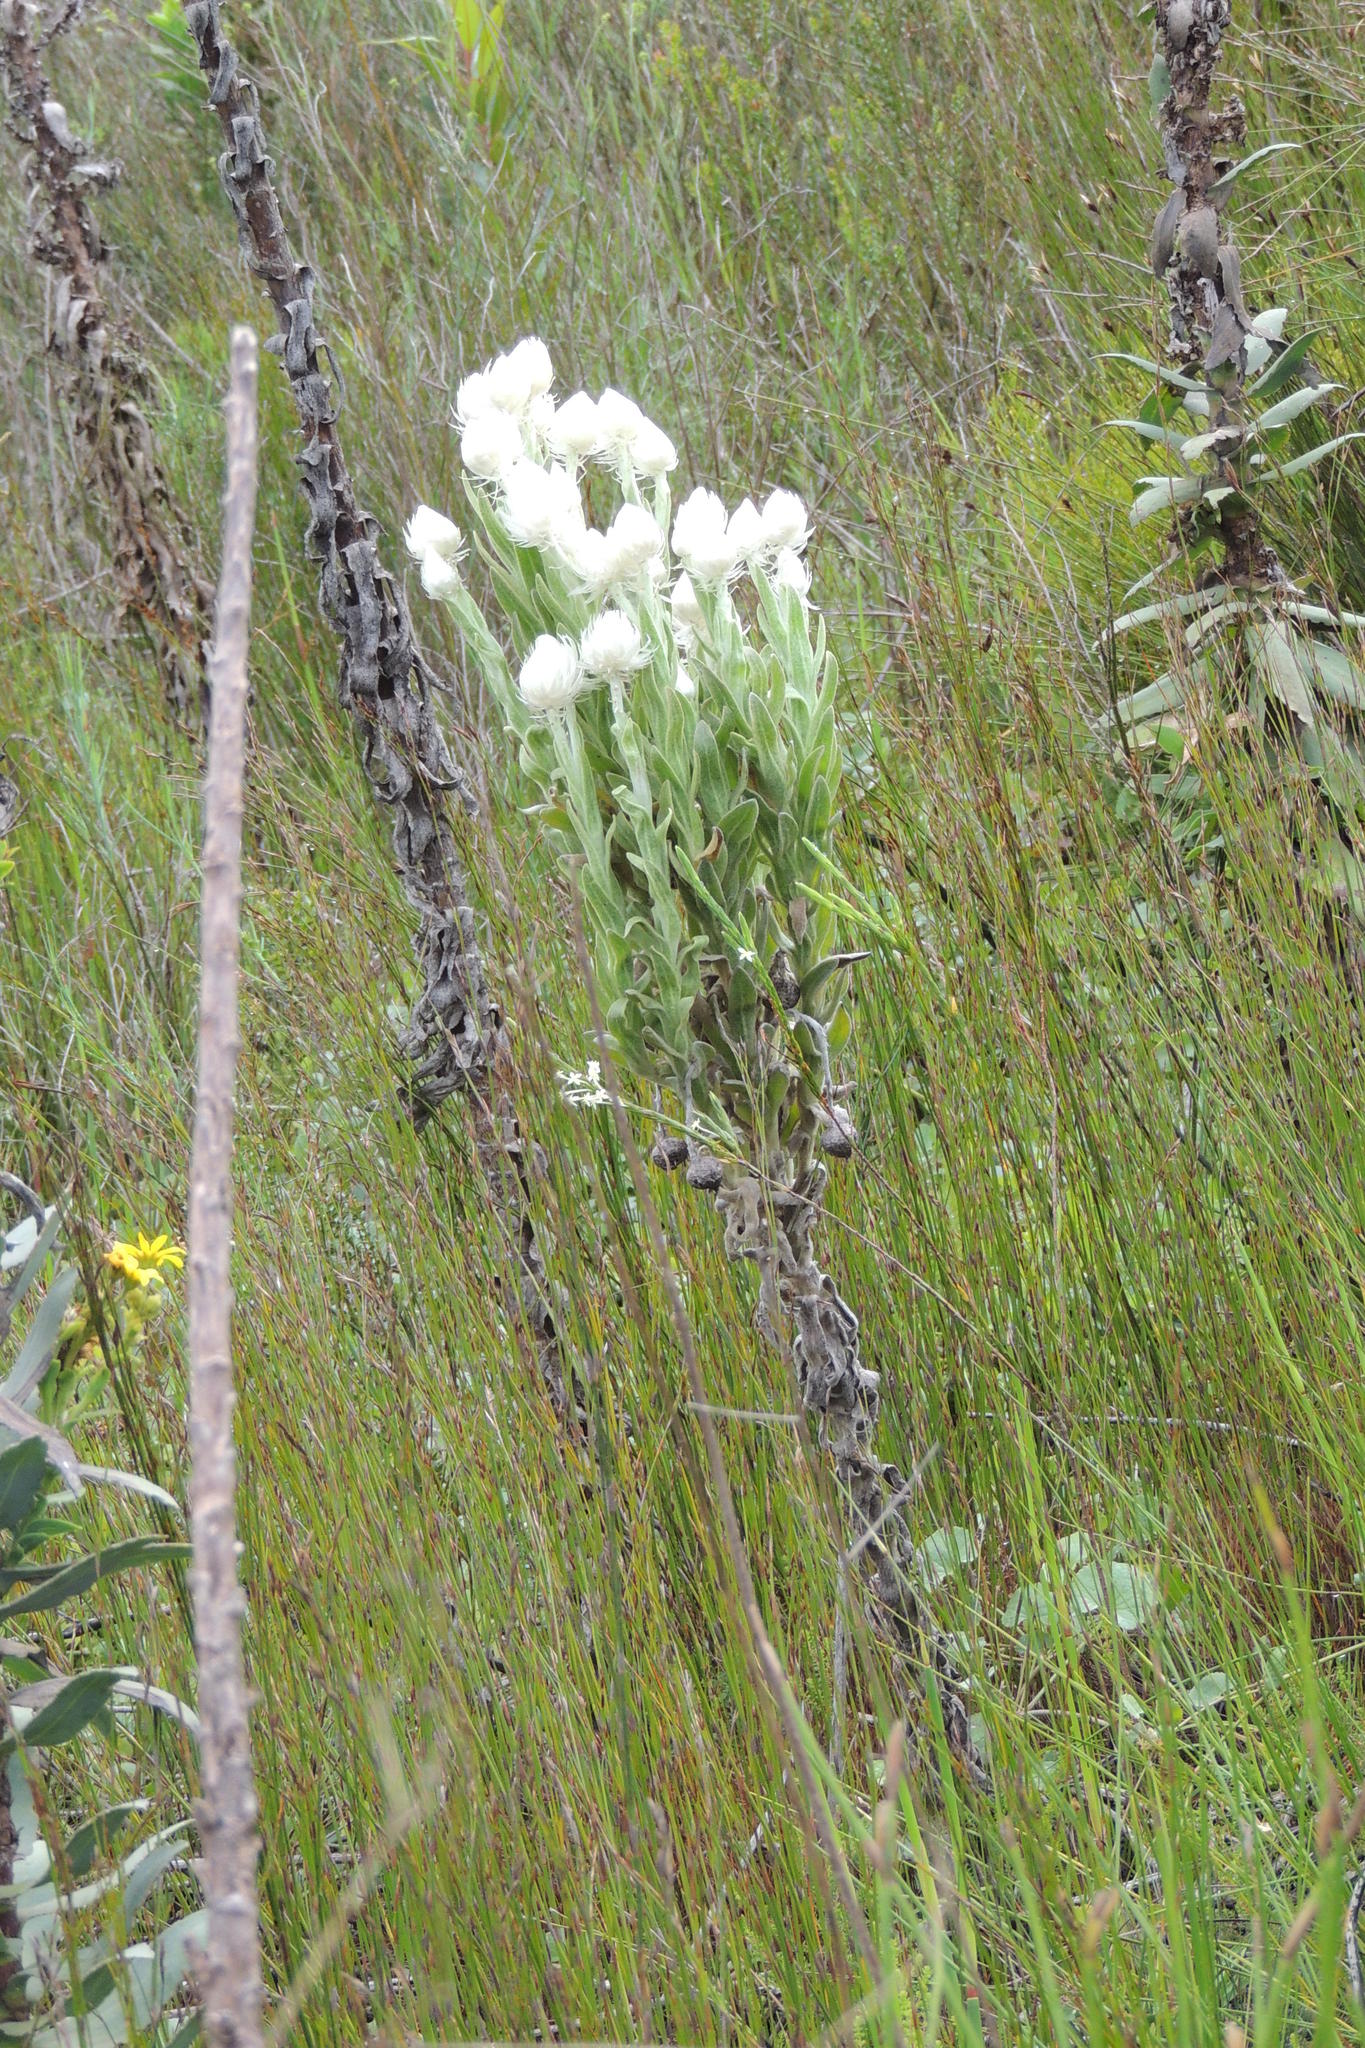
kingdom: Plantae
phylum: Tracheophyta
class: Magnoliopsida
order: Asterales
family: Asteraceae
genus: Syncarpha
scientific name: Syncarpha vestita
